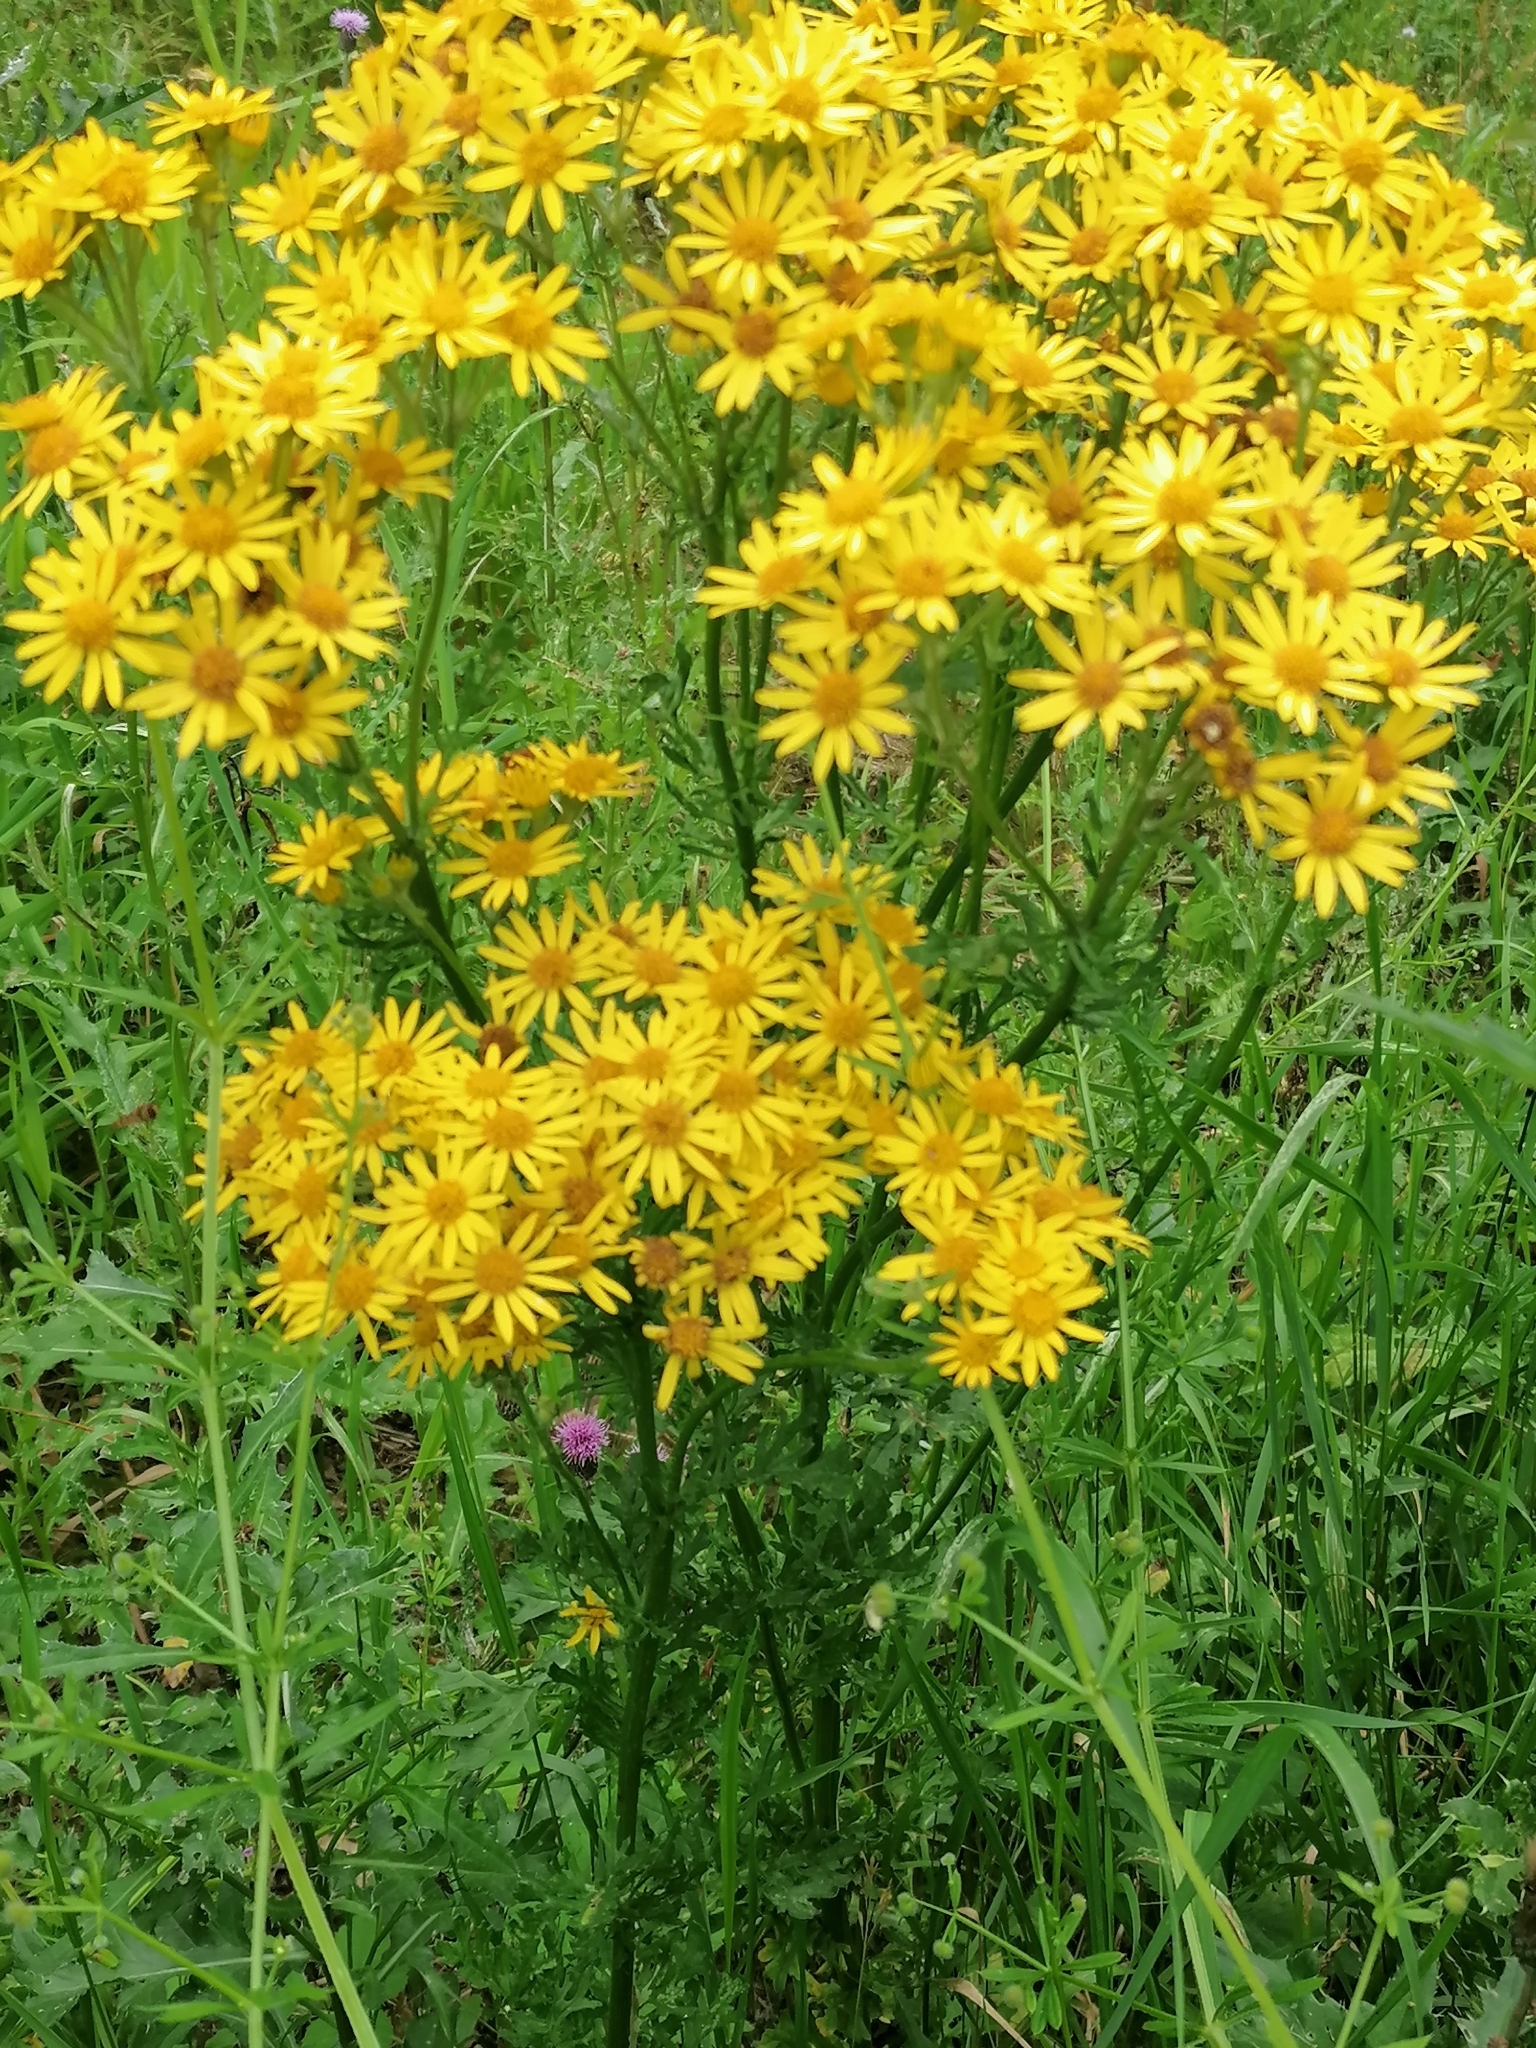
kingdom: Plantae
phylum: Tracheophyta
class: Magnoliopsida
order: Asterales
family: Asteraceae
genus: Jacobaea
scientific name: Jacobaea vulgaris
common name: Stinking willie
